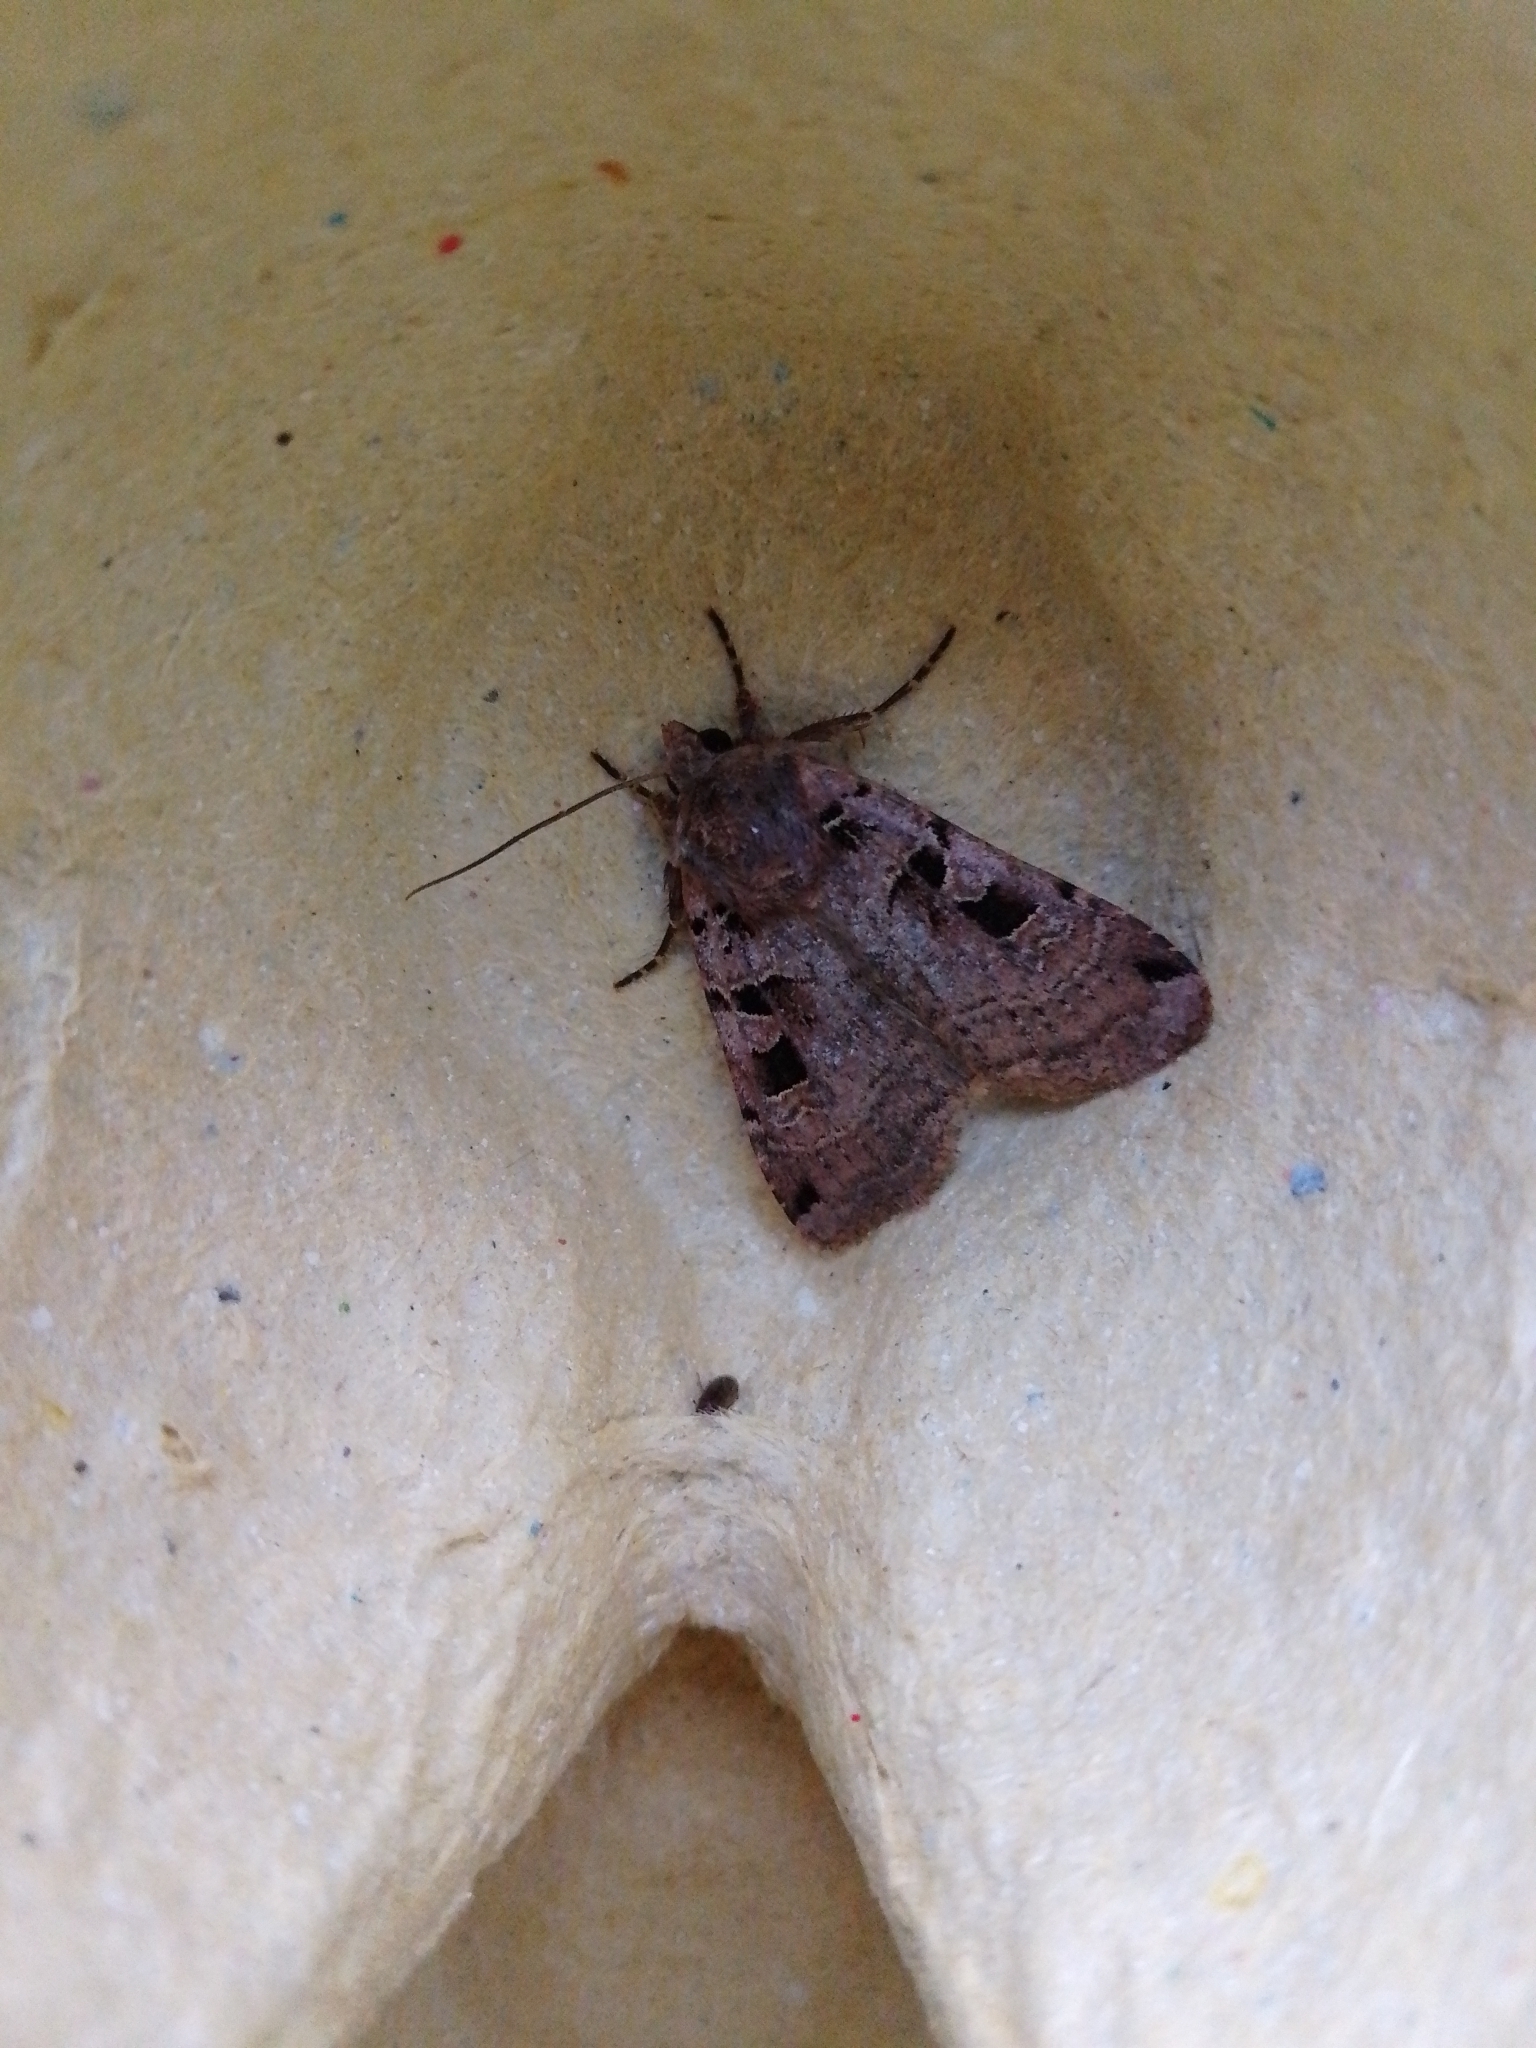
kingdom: Animalia
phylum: Arthropoda
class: Insecta
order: Lepidoptera
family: Noctuidae
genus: Xestia
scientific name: Xestia triangulum
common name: Double square-spot
